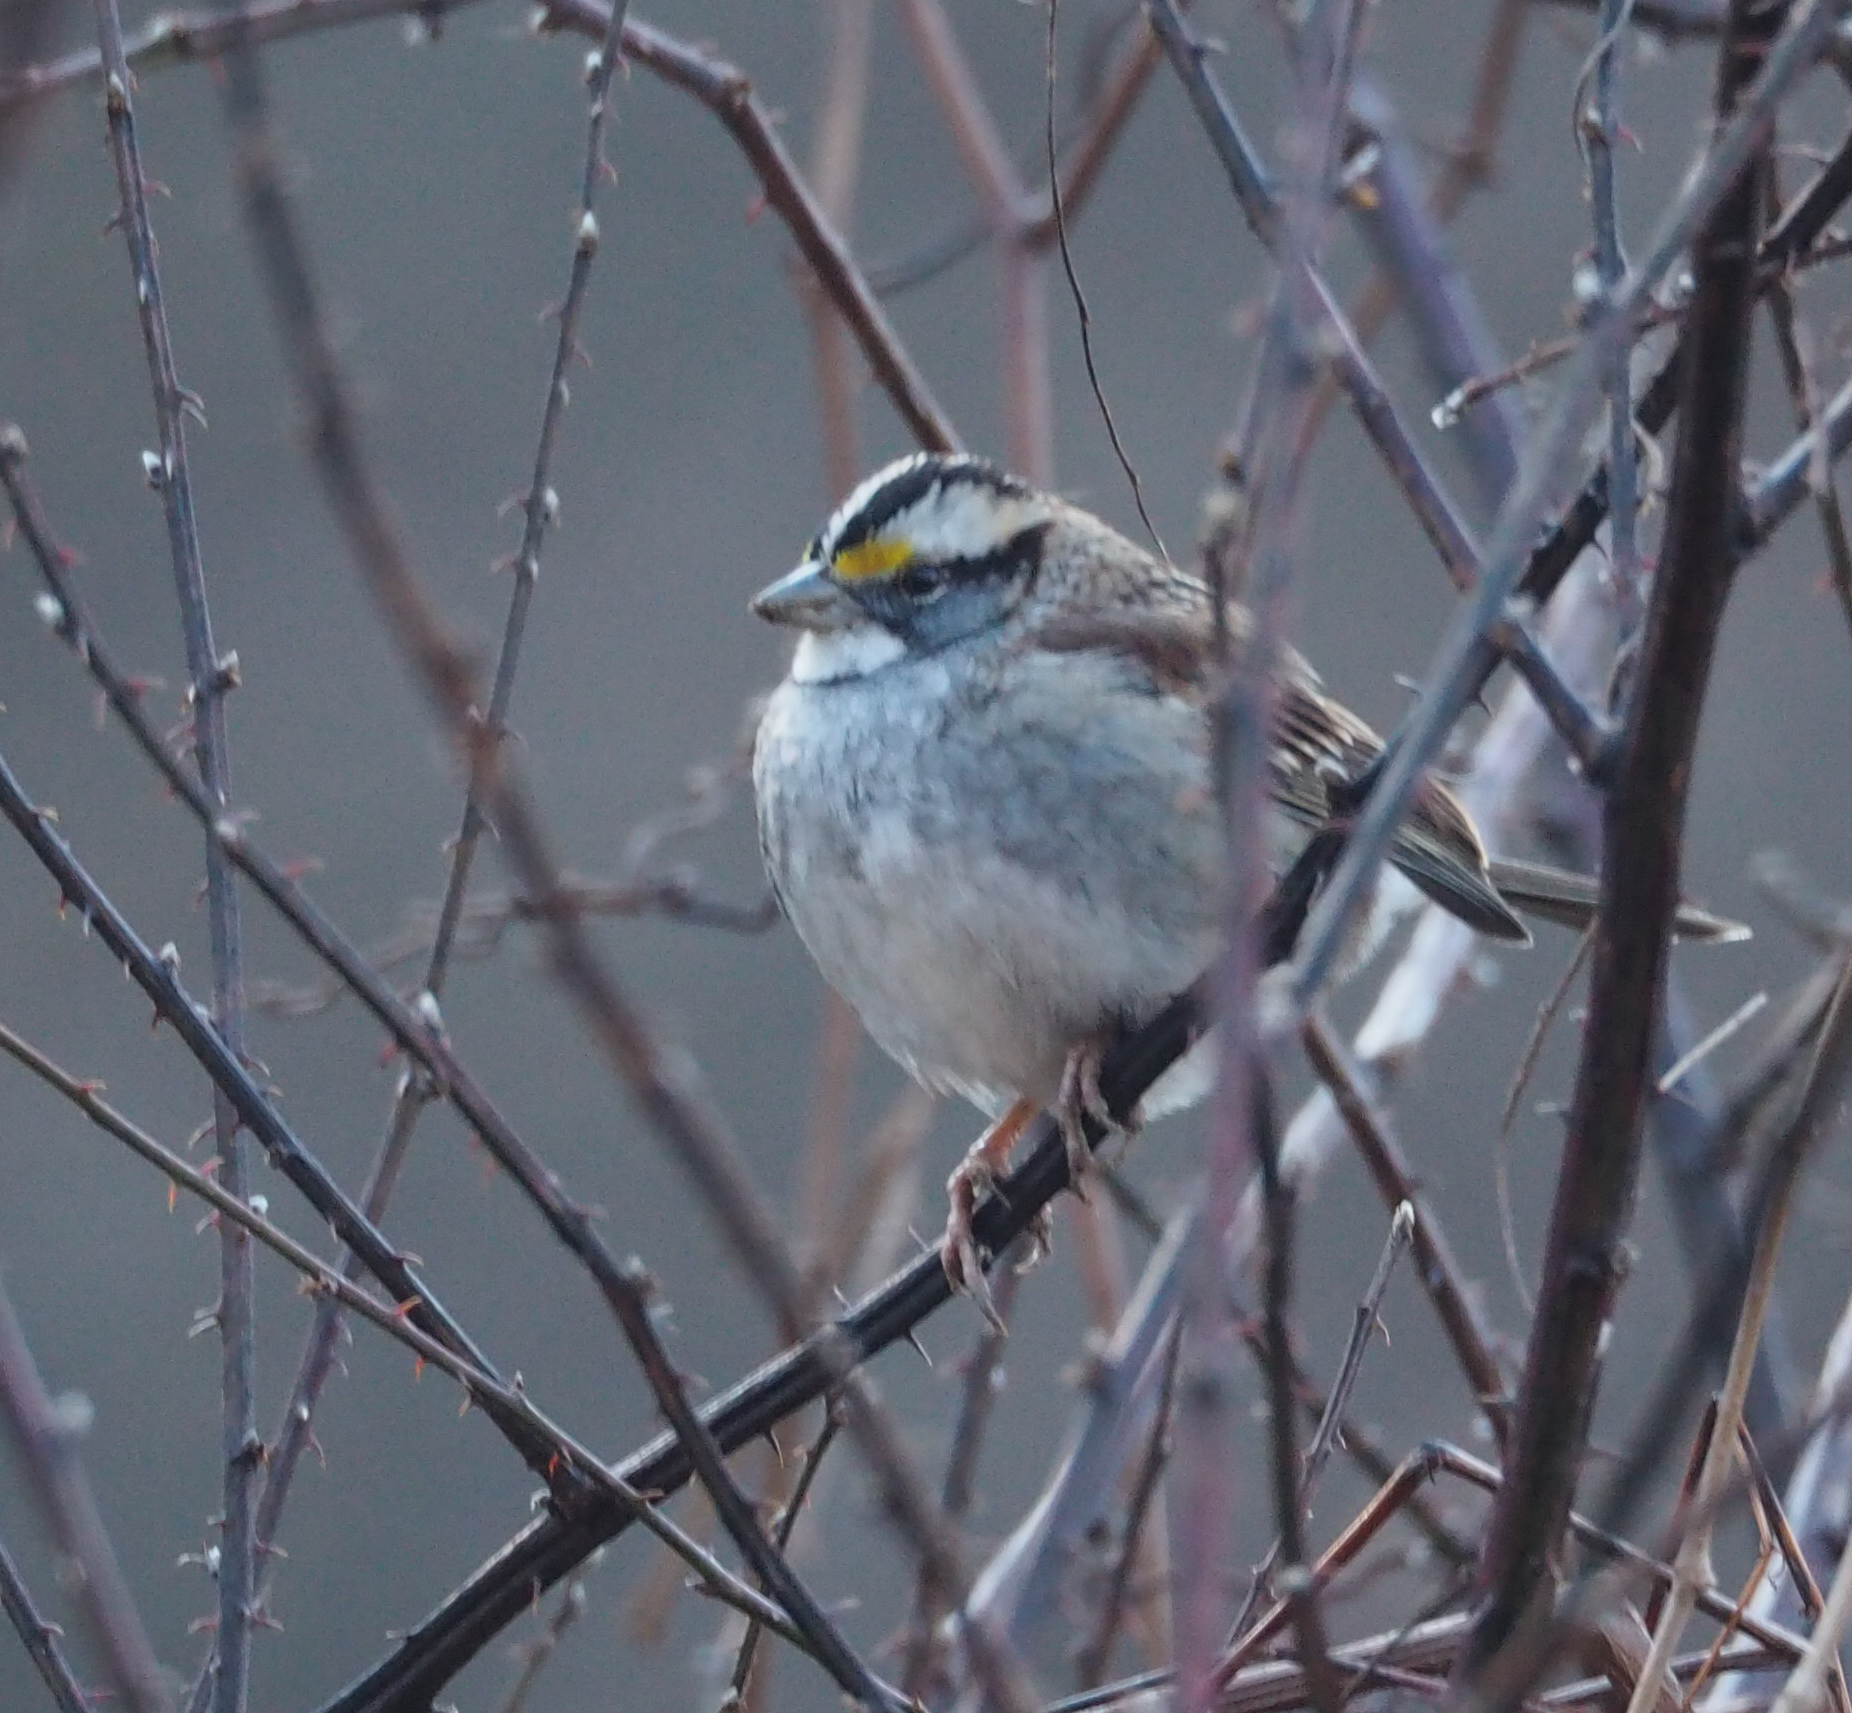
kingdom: Animalia
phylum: Chordata
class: Aves
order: Passeriformes
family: Passerellidae
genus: Zonotrichia
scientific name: Zonotrichia albicollis
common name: White-throated sparrow
